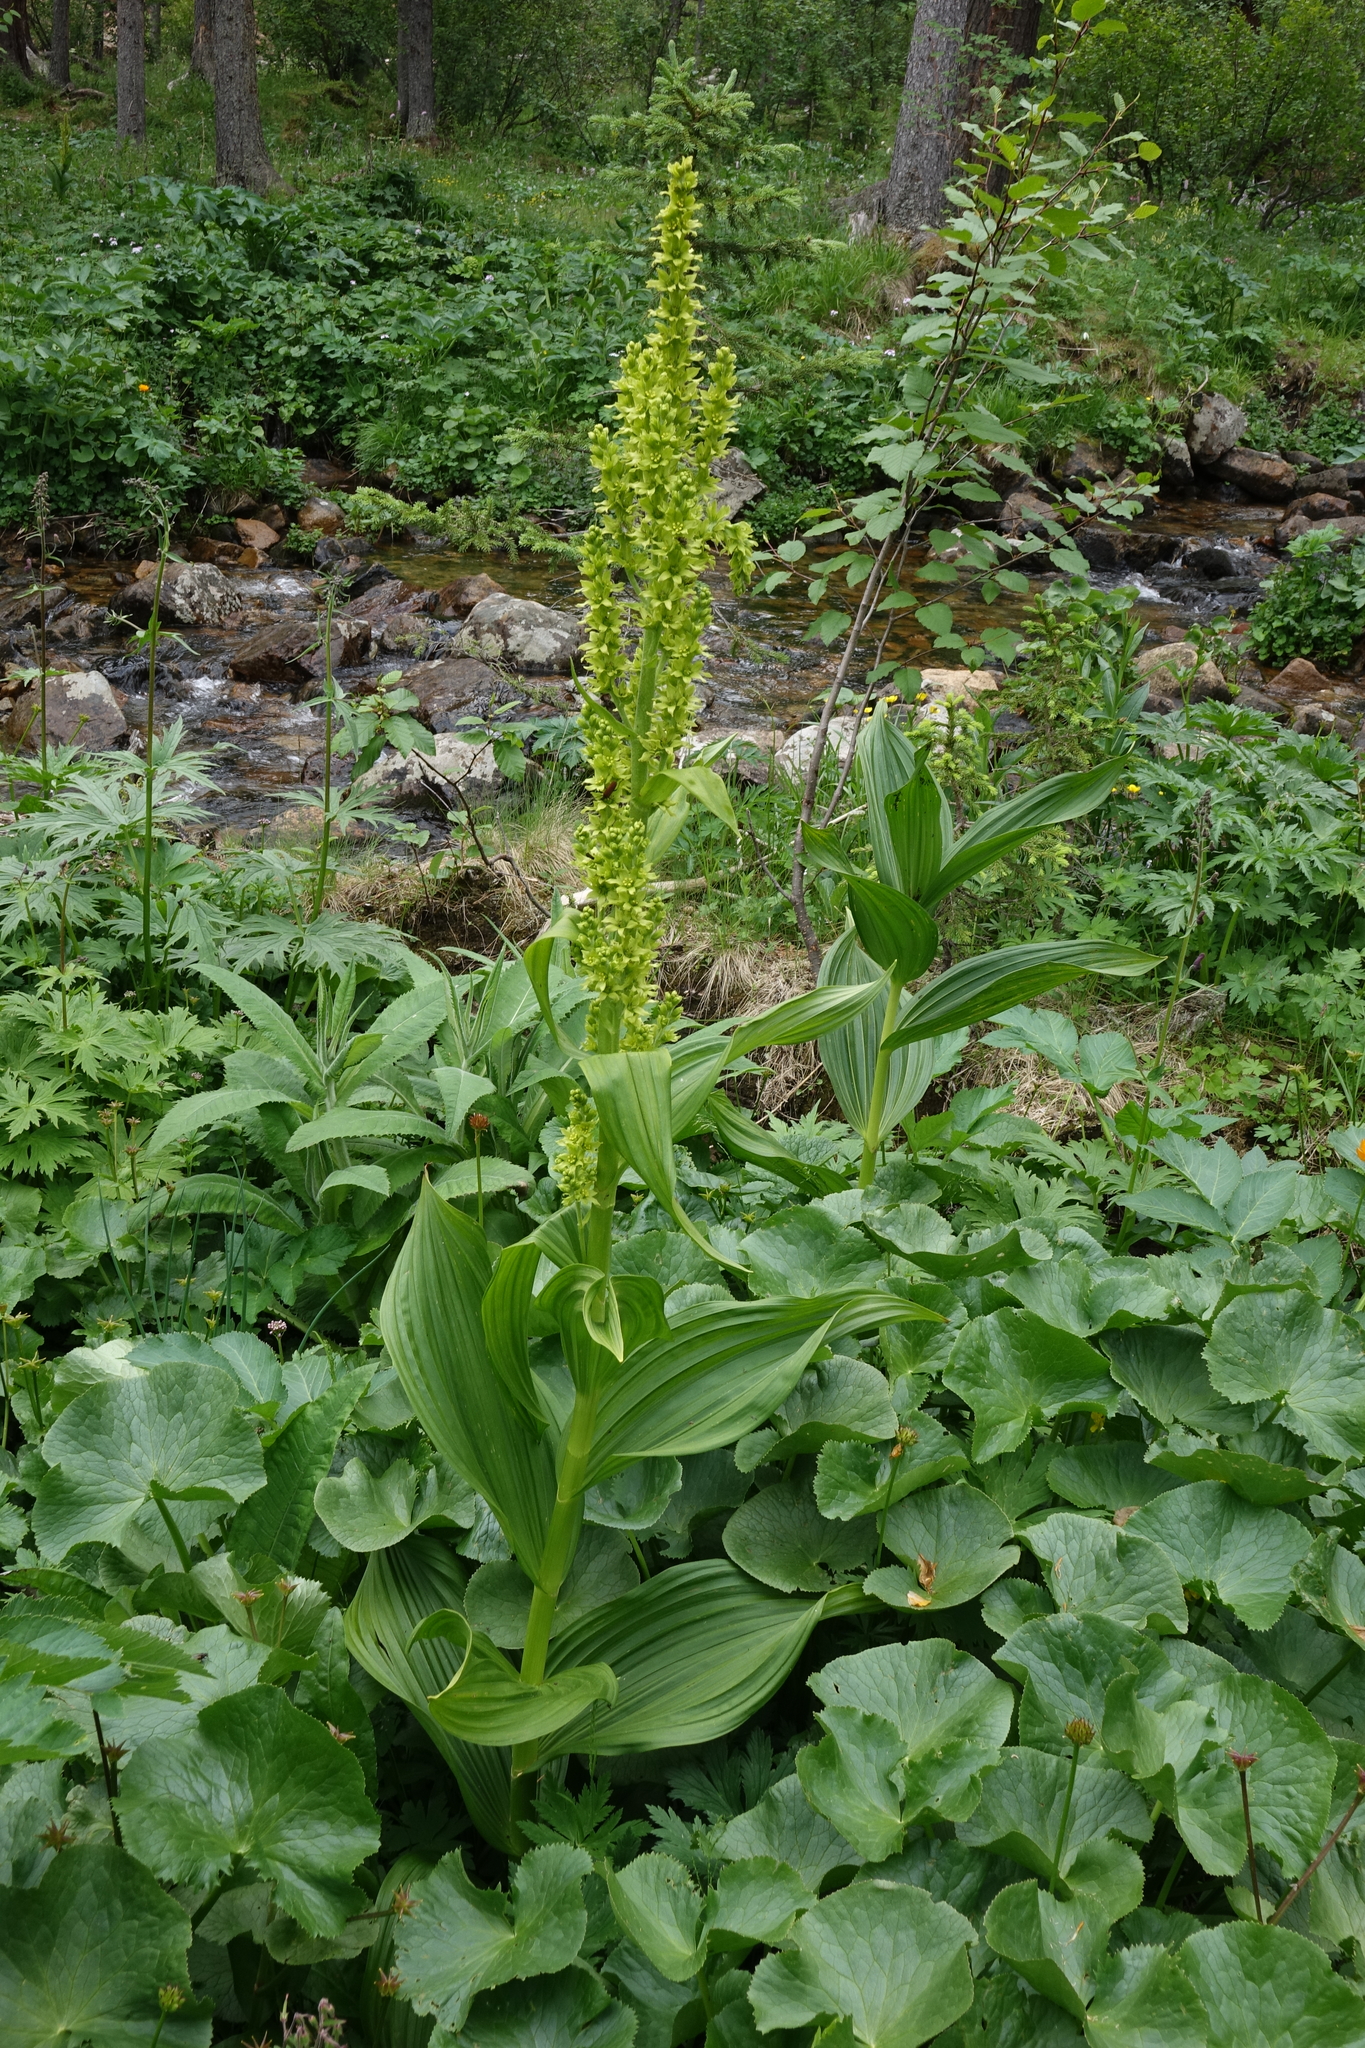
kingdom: Plantae
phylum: Tracheophyta
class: Liliopsida
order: Liliales
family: Melanthiaceae
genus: Veratrum
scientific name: Veratrum lobelianum
